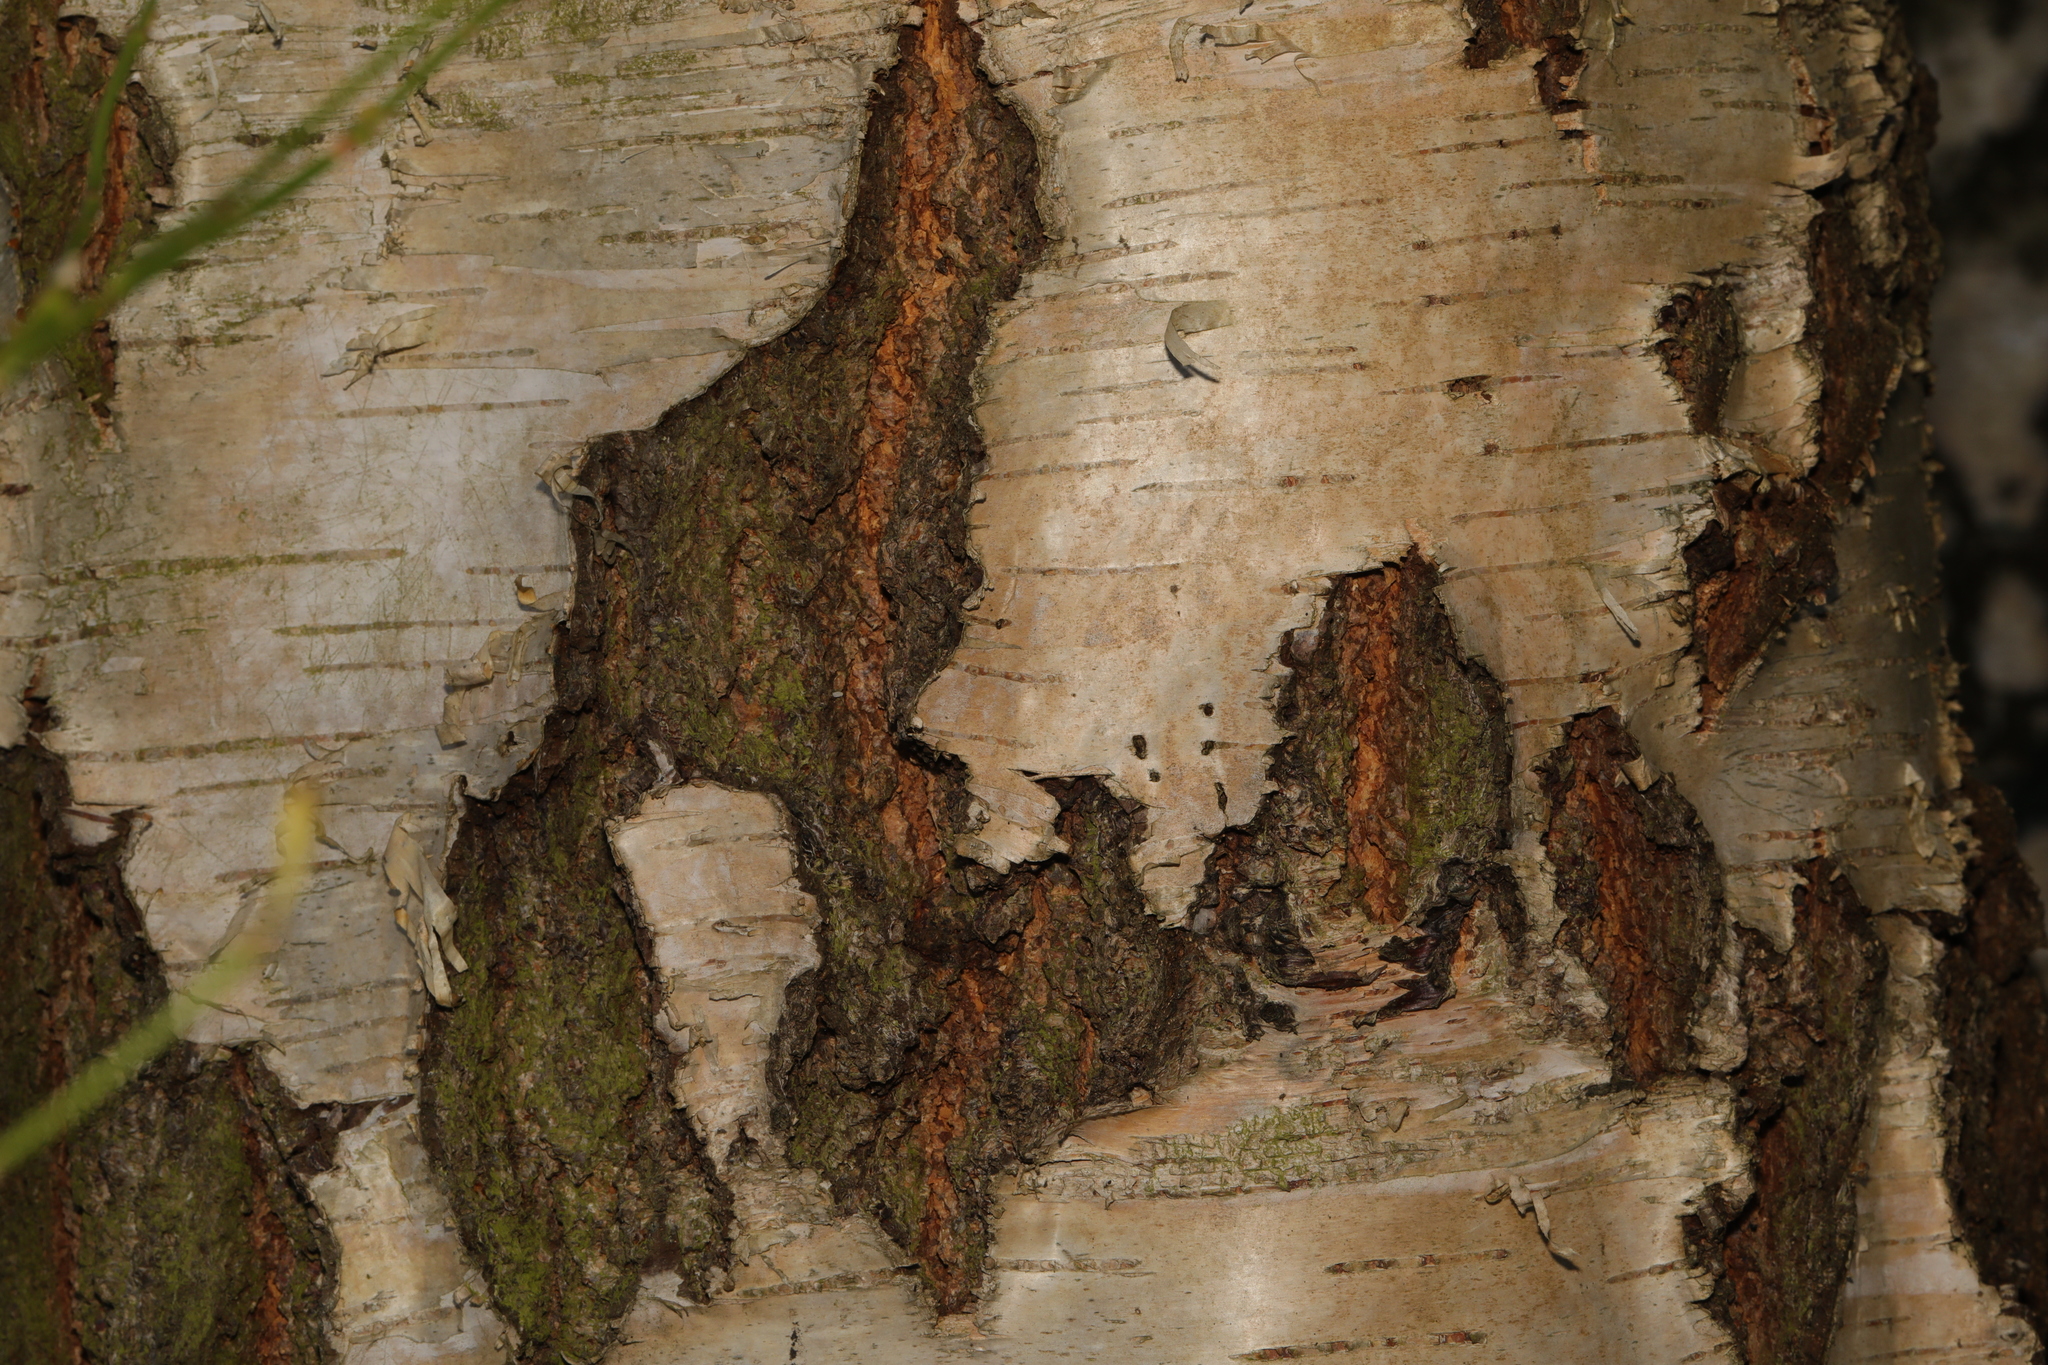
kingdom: Plantae
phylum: Tracheophyta
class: Magnoliopsida
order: Fagales
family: Betulaceae
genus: Betula
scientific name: Betula pendula
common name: Silver birch
